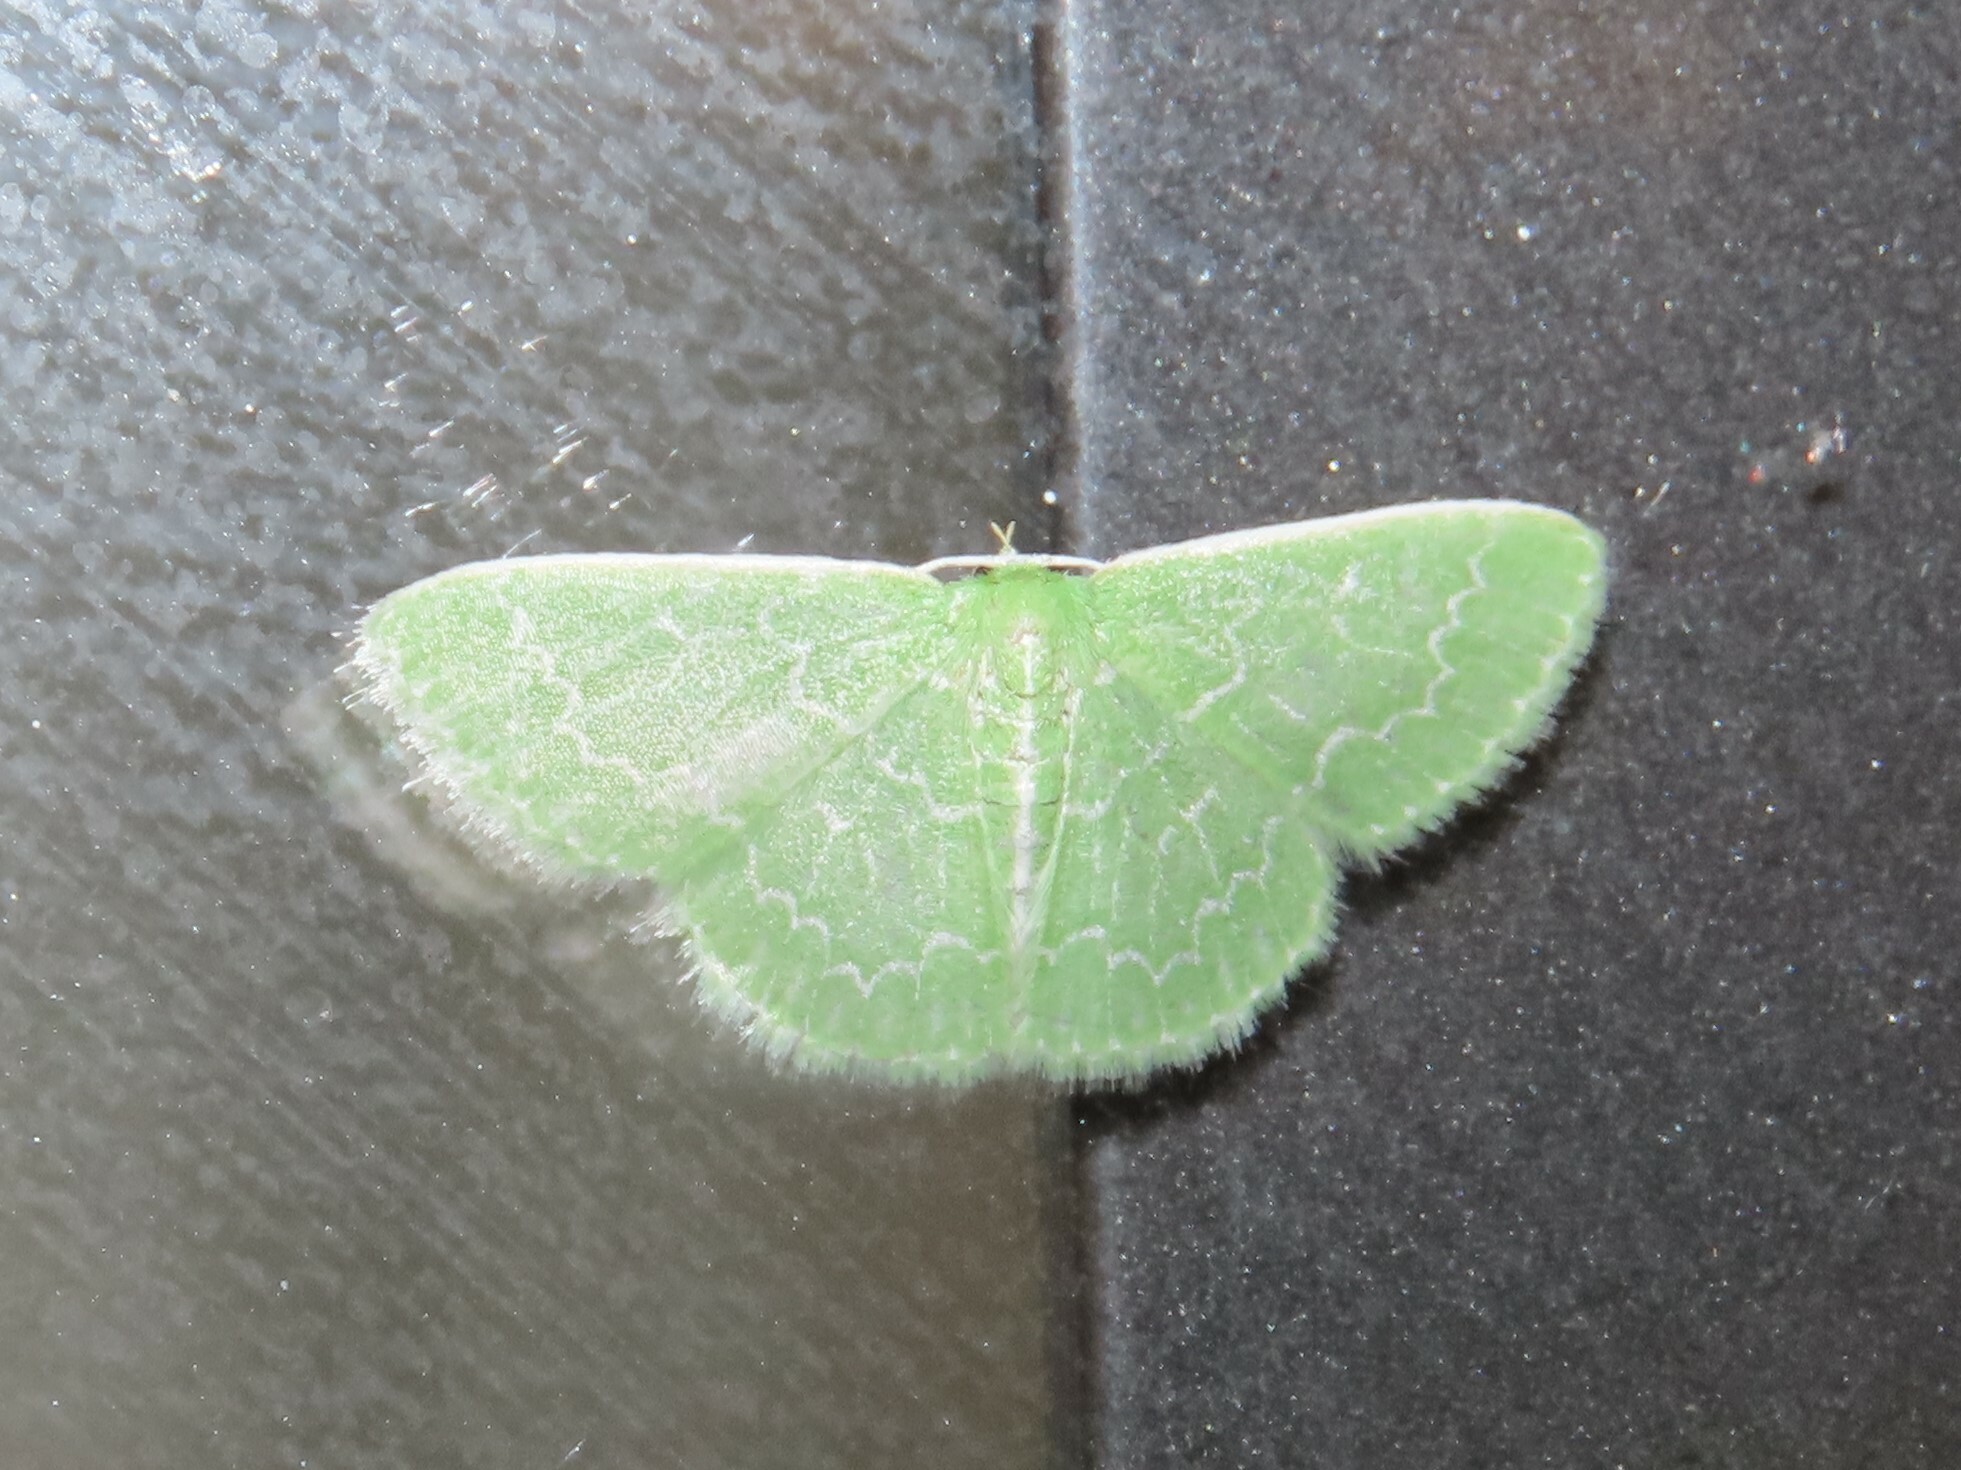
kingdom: Animalia
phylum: Arthropoda
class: Insecta
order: Lepidoptera
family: Geometridae
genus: Synchlora
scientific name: Synchlora frondaria
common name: Southern emerald
